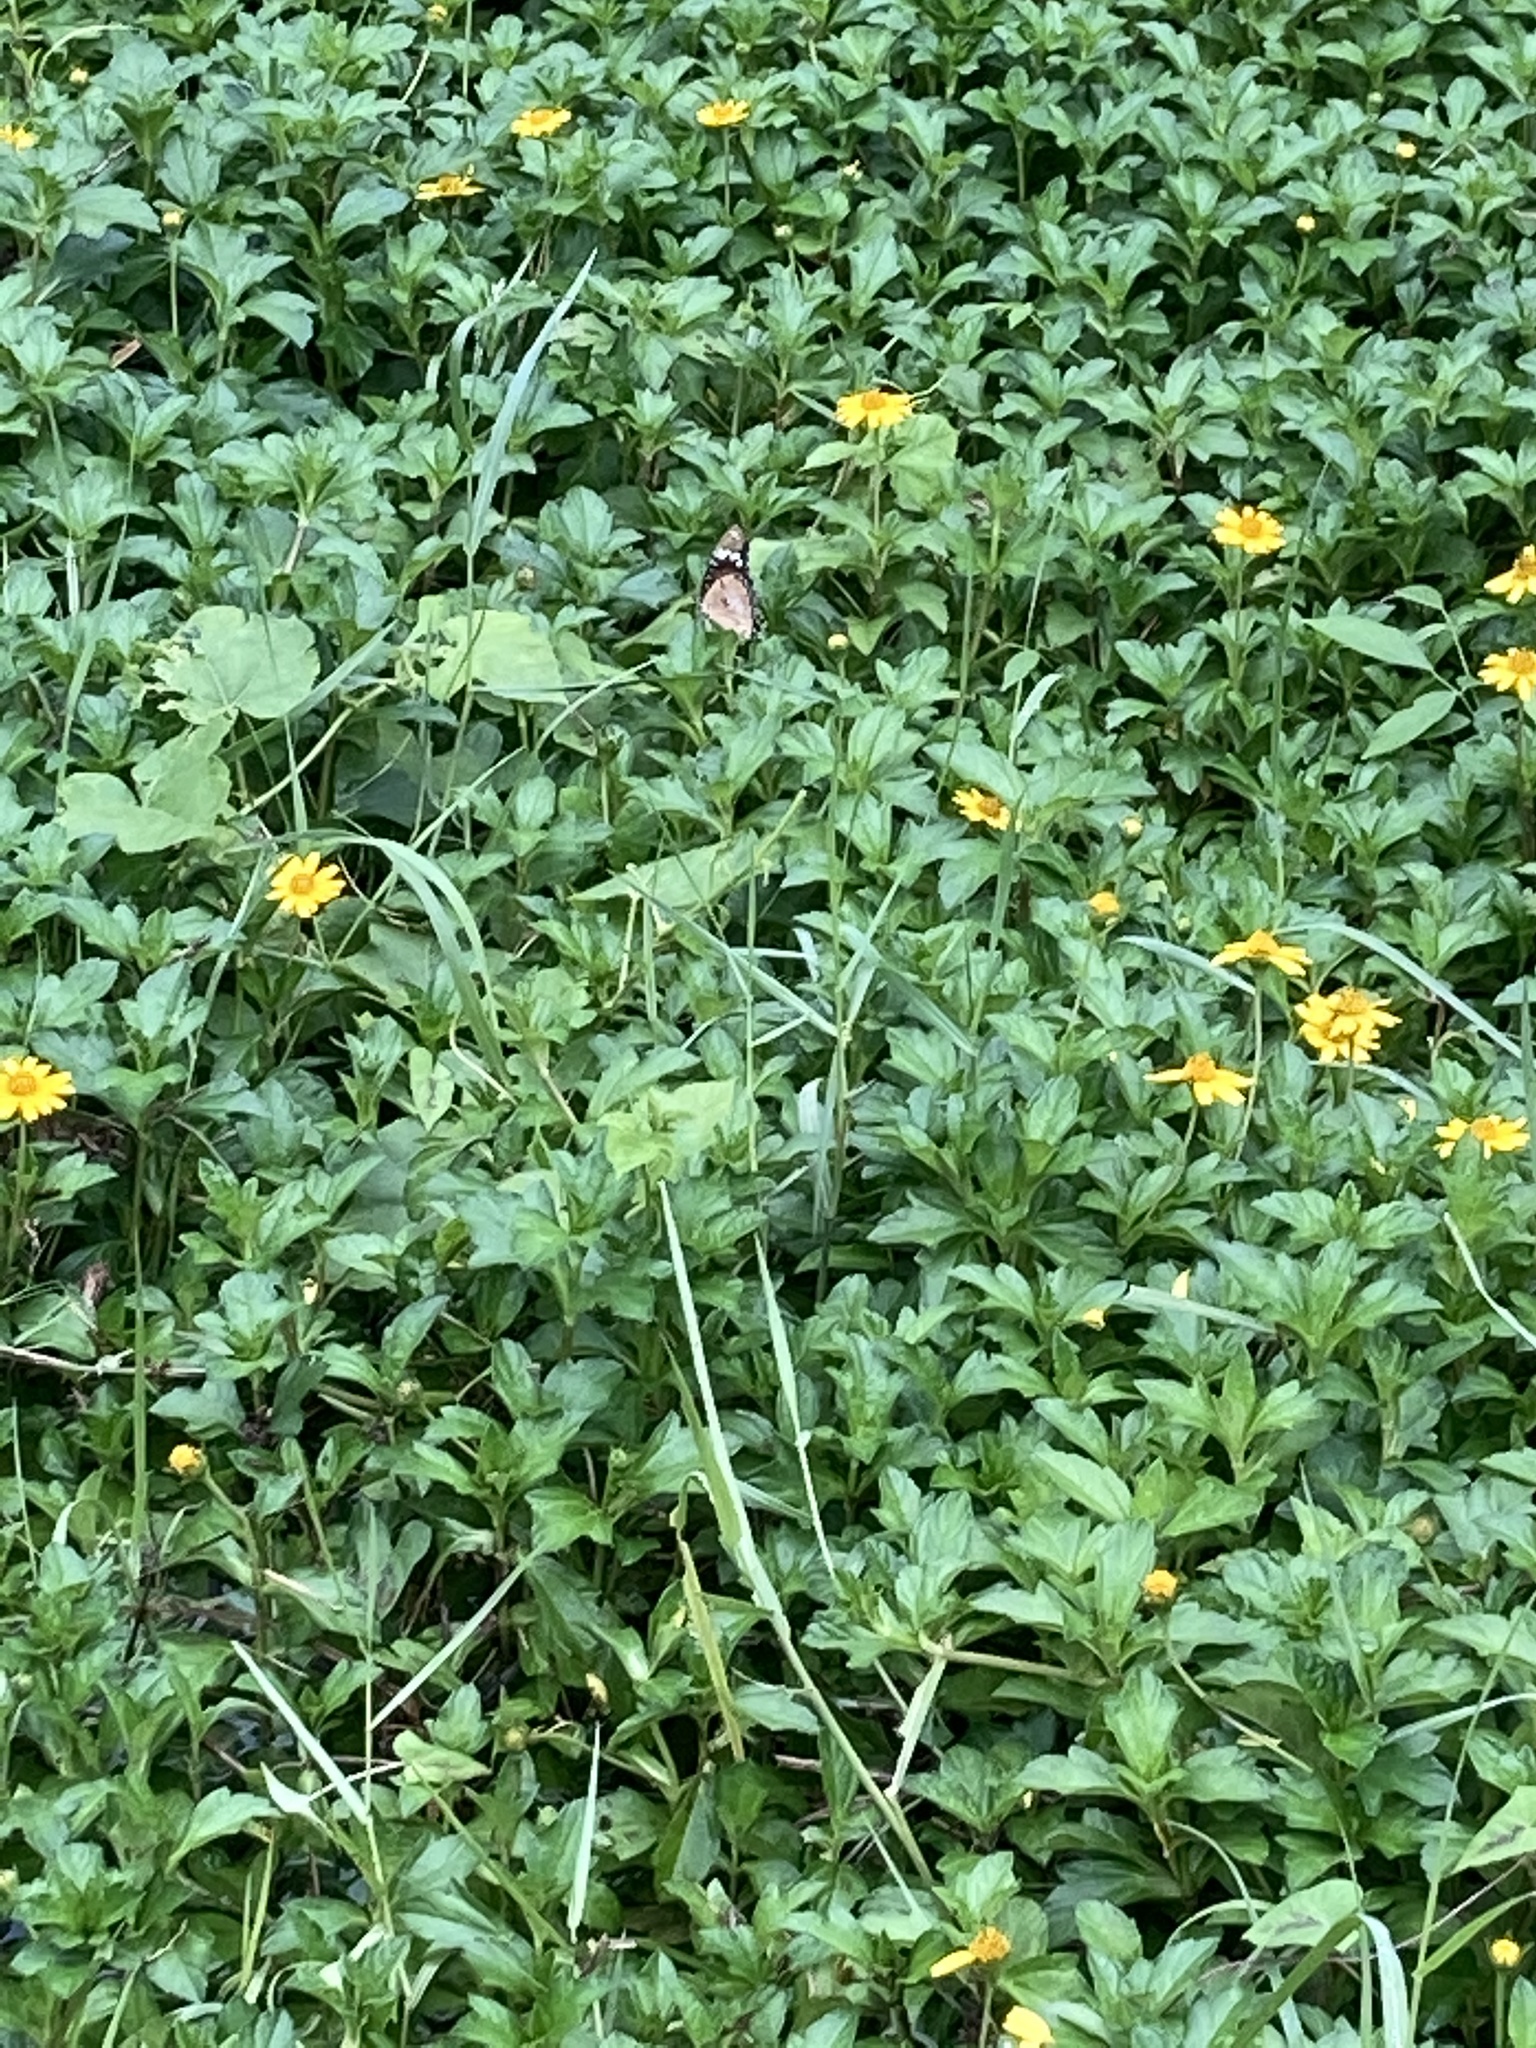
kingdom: Animalia
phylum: Arthropoda
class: Insecta
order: Lepidoptera
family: Nymphalidae
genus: Hypolimnas
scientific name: Hypolimnas misippus
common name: False plain tiger
